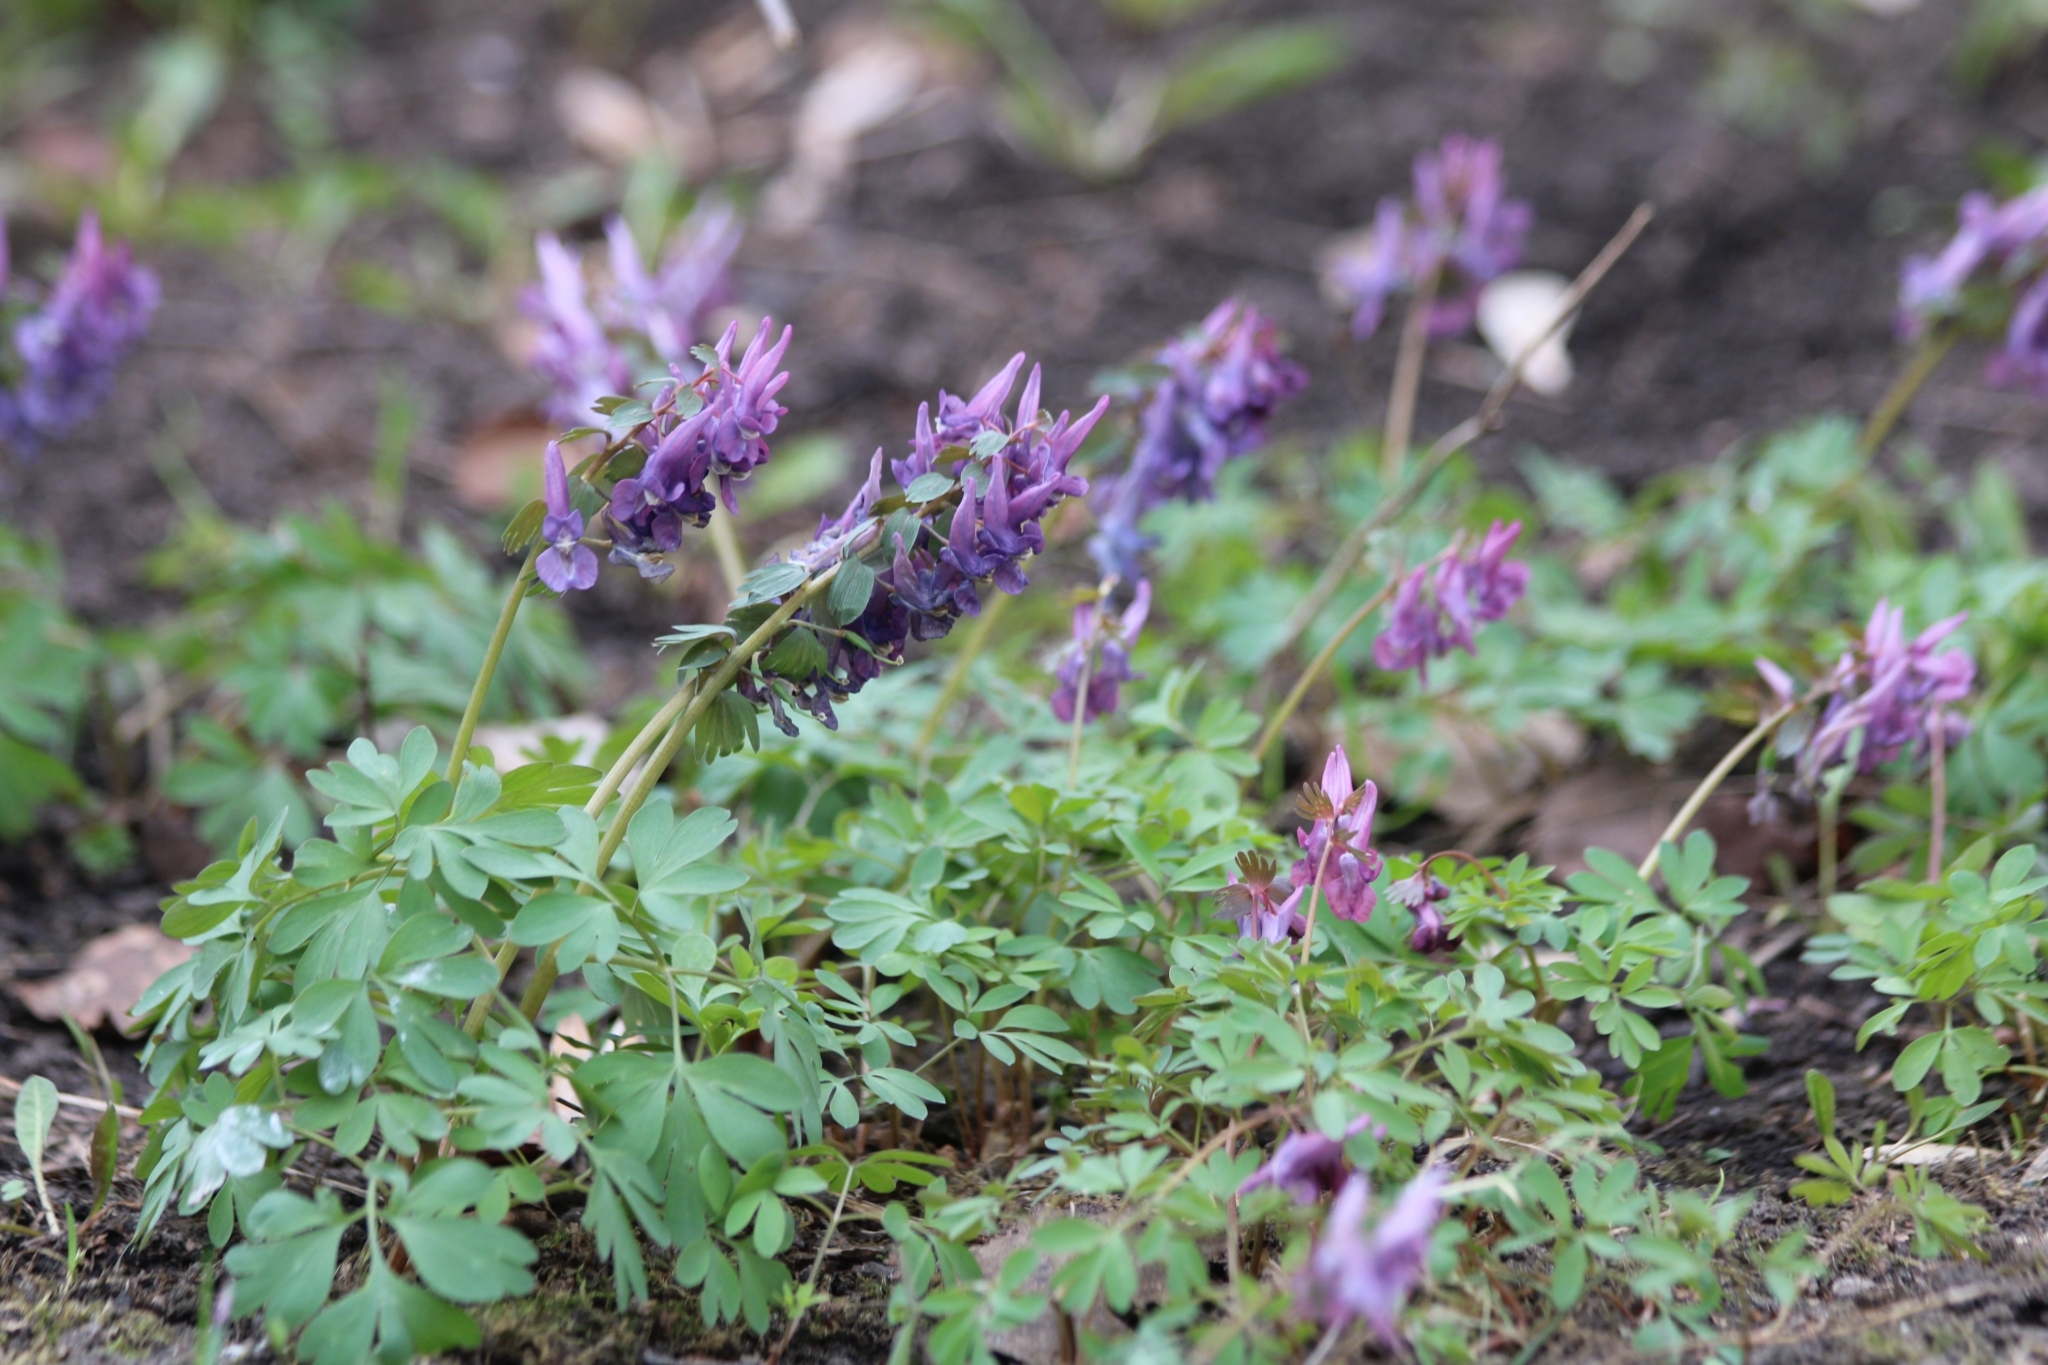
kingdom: Plantae
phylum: Tracheophyta
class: Magnoliopsida
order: Ranunculales
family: Papaveraceae
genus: Corydalis
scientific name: Corydalis solida
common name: Bird-in-a-bush
